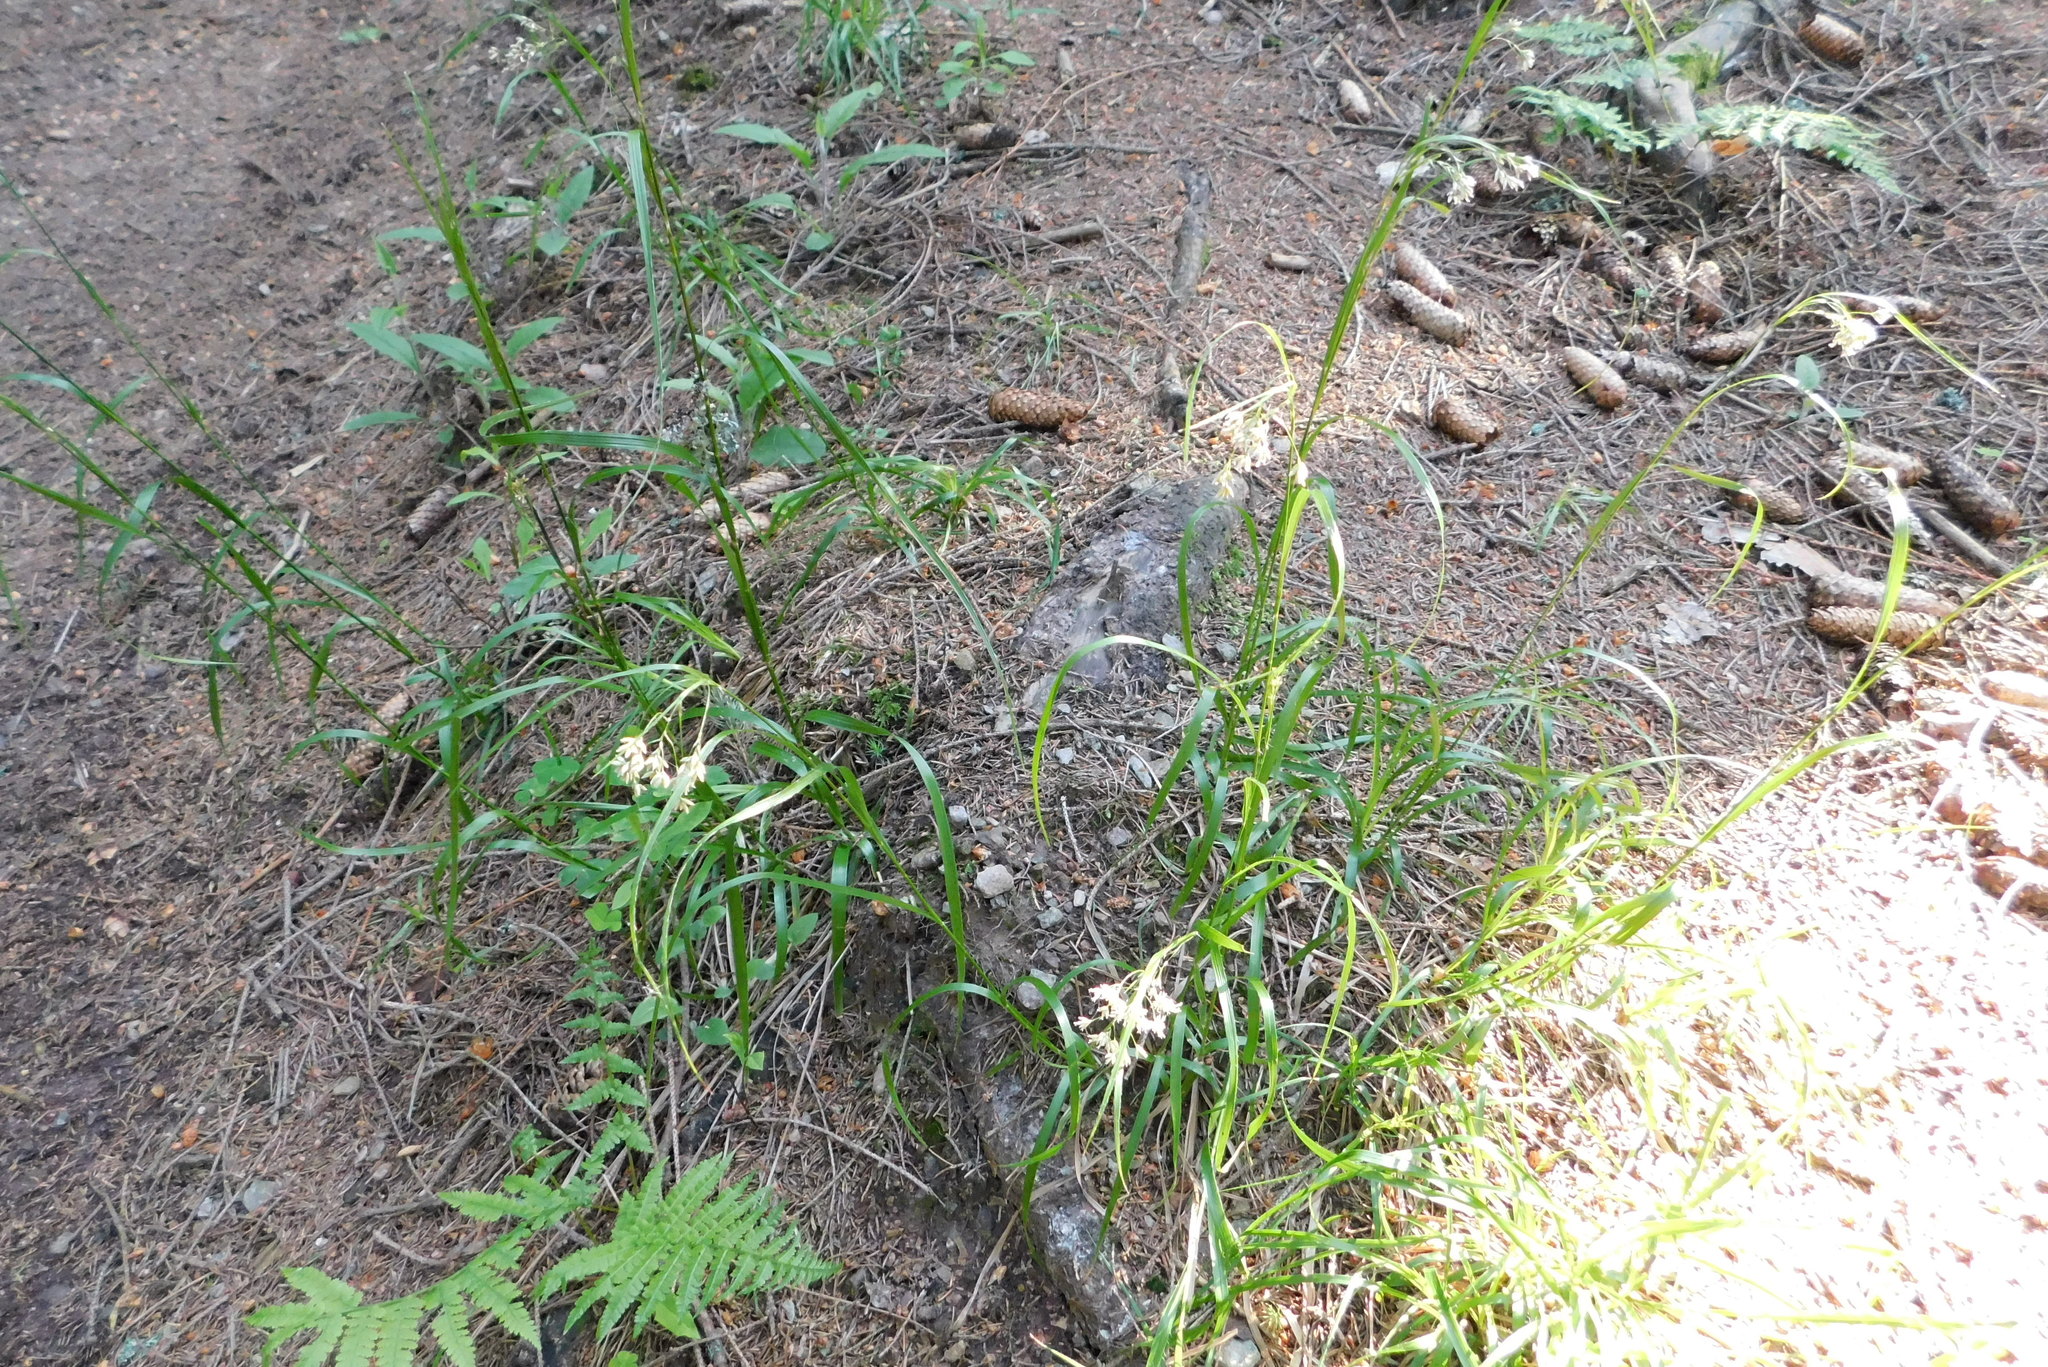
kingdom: Plantae
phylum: Tracheophyta
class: Liliopsida
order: Poales
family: Juncaceae
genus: Luzula
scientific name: Luzula luzuloides
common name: White wood-rush
